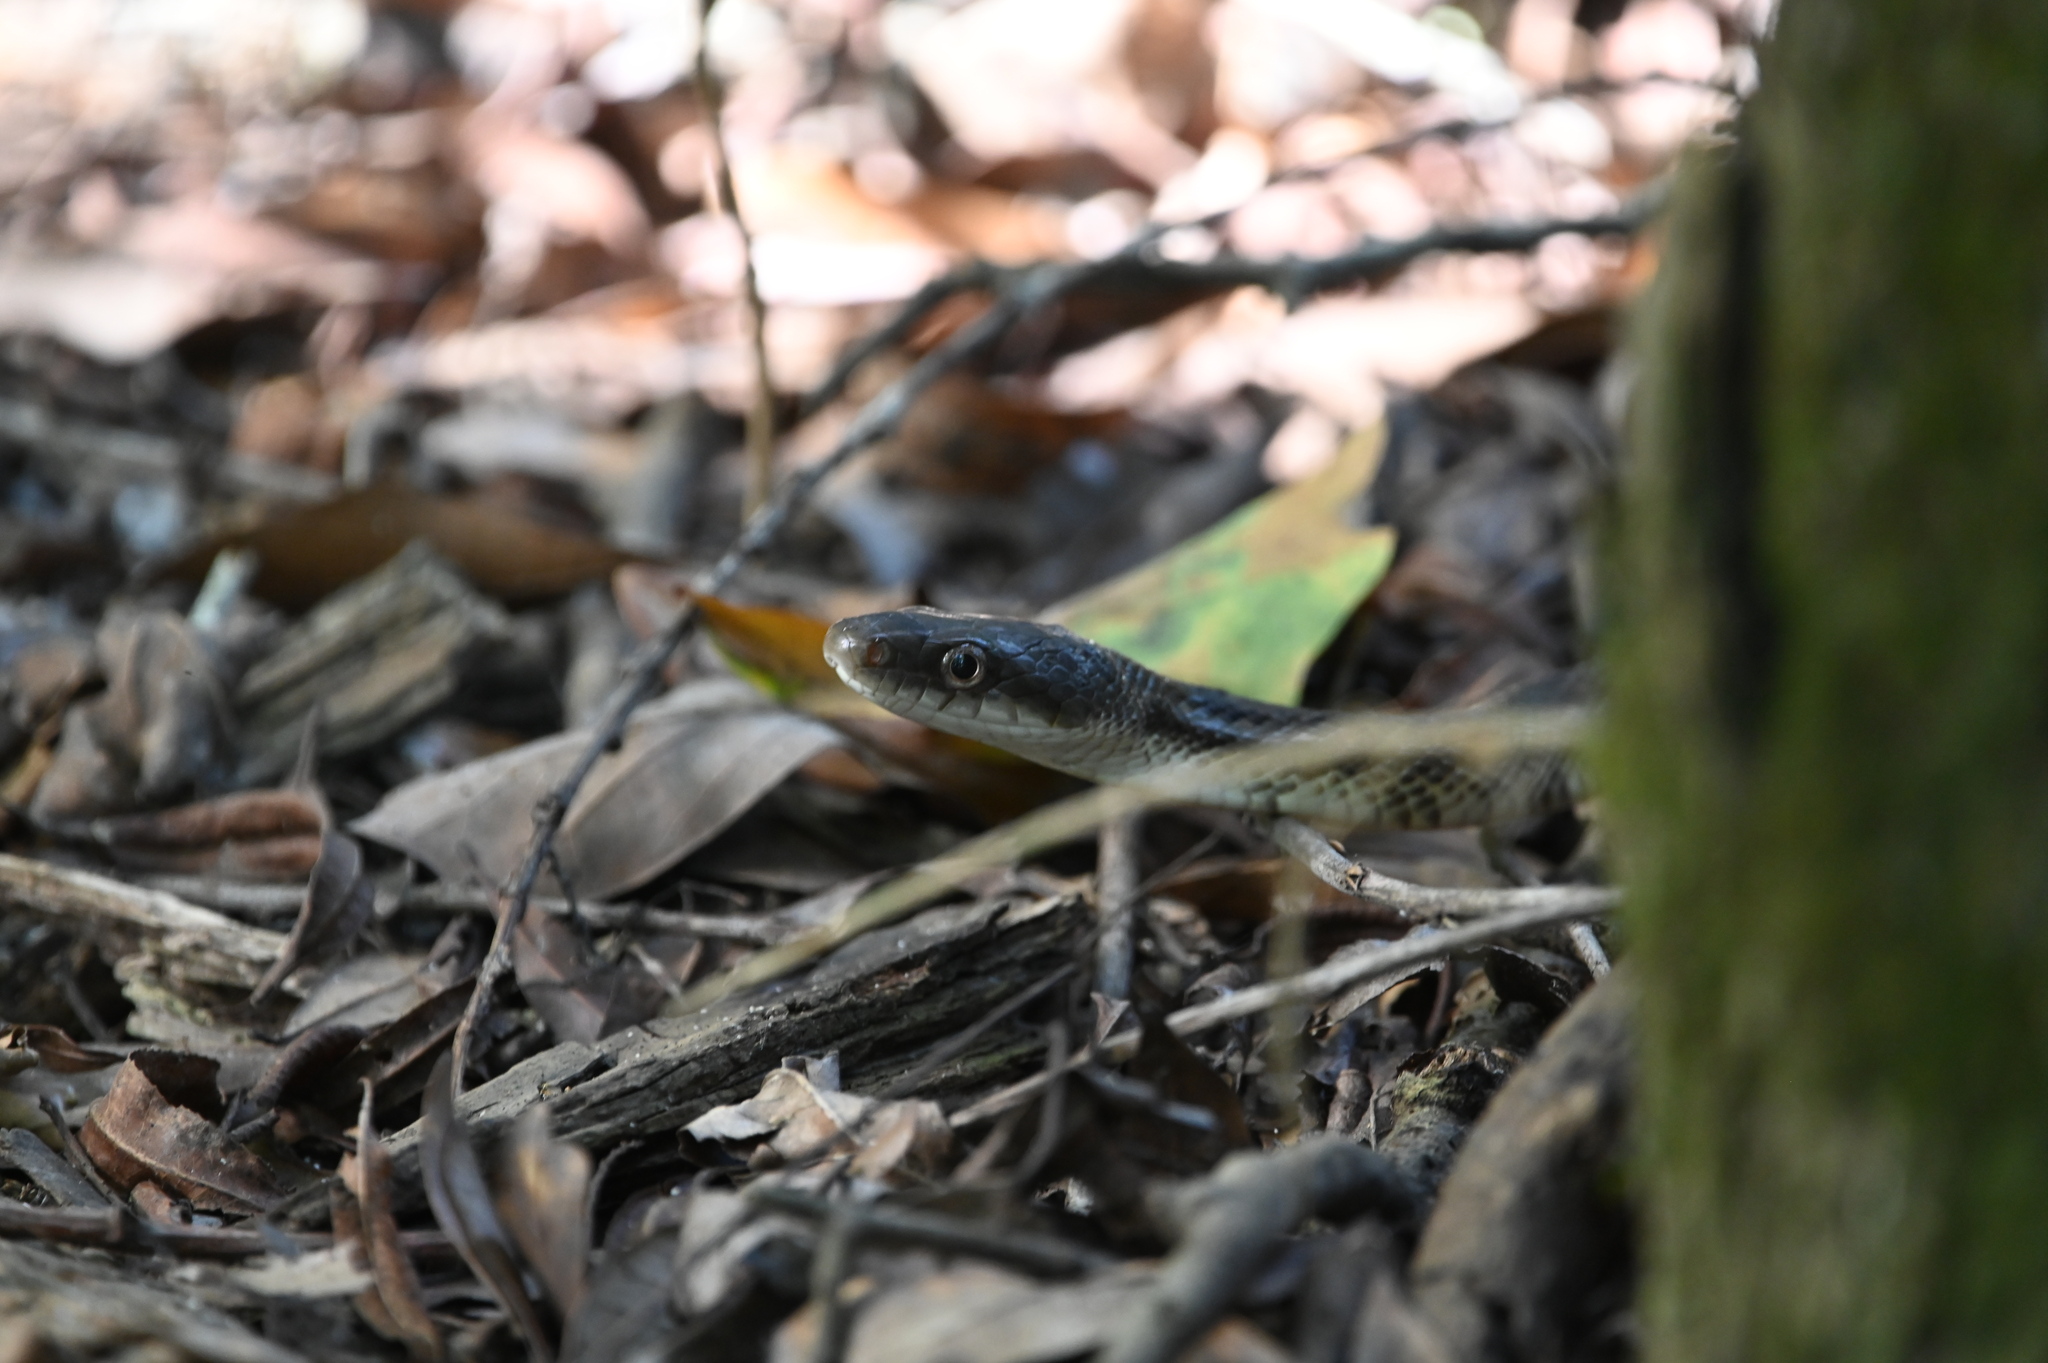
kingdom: Animalia
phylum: Chordata
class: Squamata
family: Colubridae
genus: Pantherophis
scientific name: Pantherophis obsoletus
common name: Black rat snake
